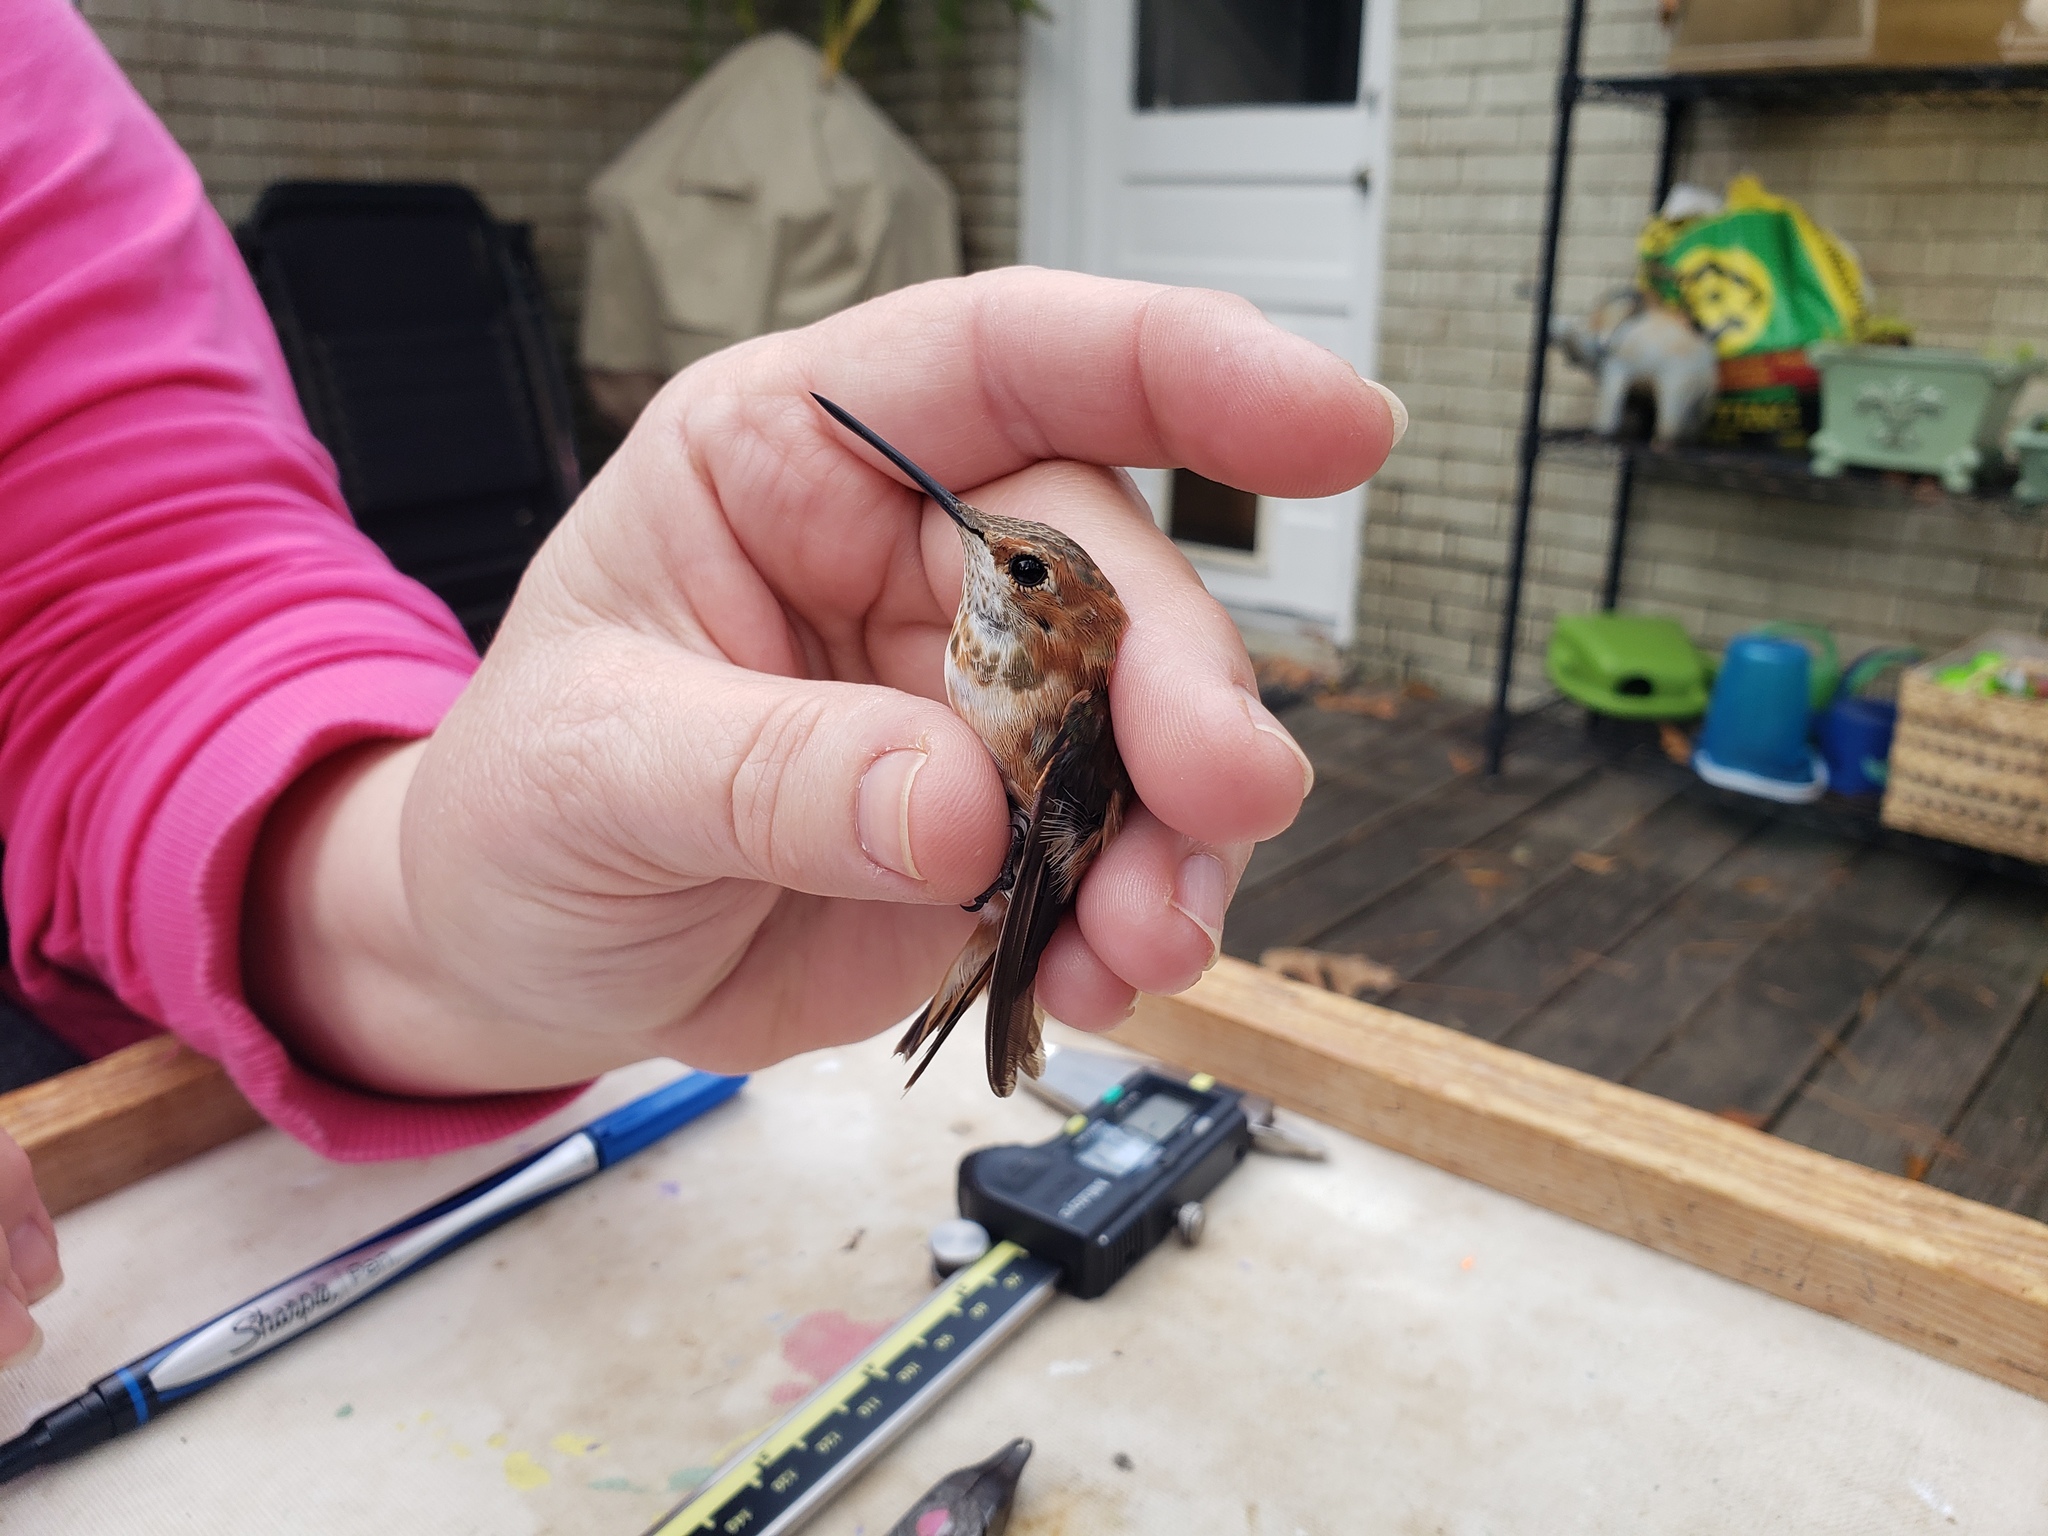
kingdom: Animalia
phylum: Chordata
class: Aves
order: Apodiformes
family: Trochilidae
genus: Selasphorus
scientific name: Selasphorus rufus
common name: Rufous hummingbird
